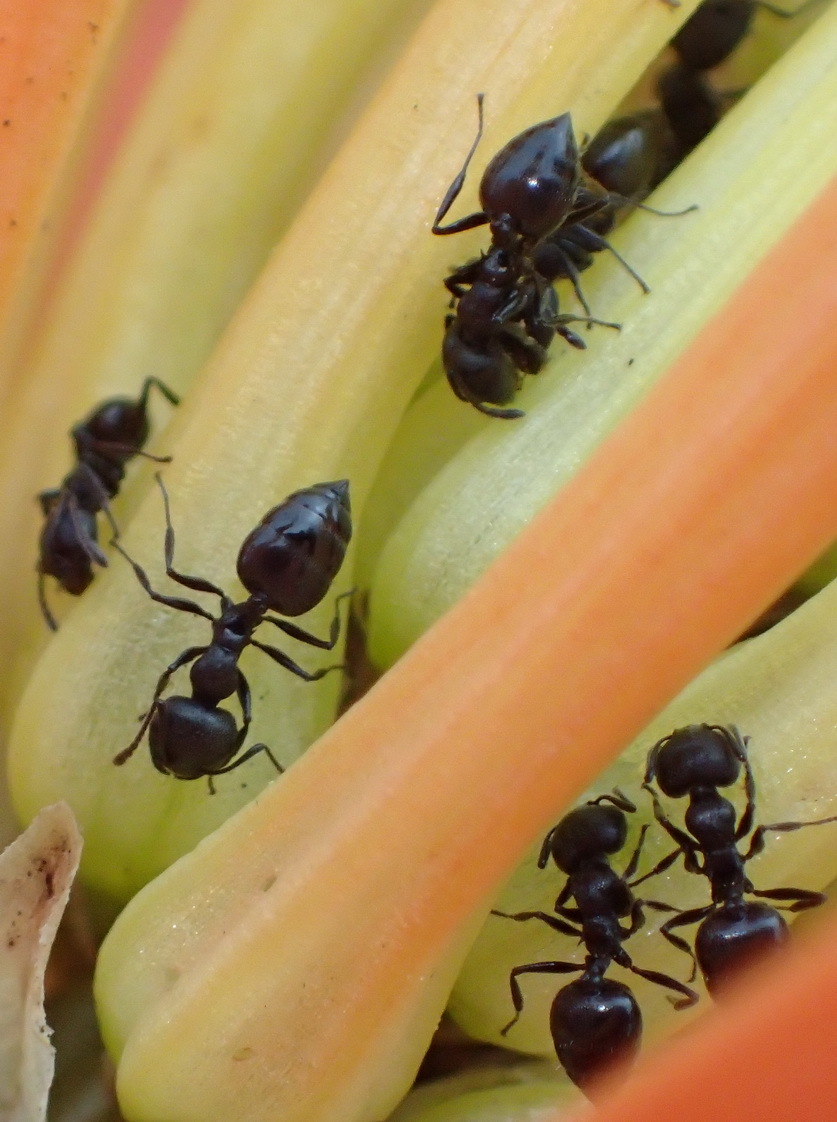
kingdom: Animalia
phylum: Arthropoda
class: Insecta
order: Hymenoptera
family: Formicidae
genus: Crematogaster
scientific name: Crematogaster peringueyi
